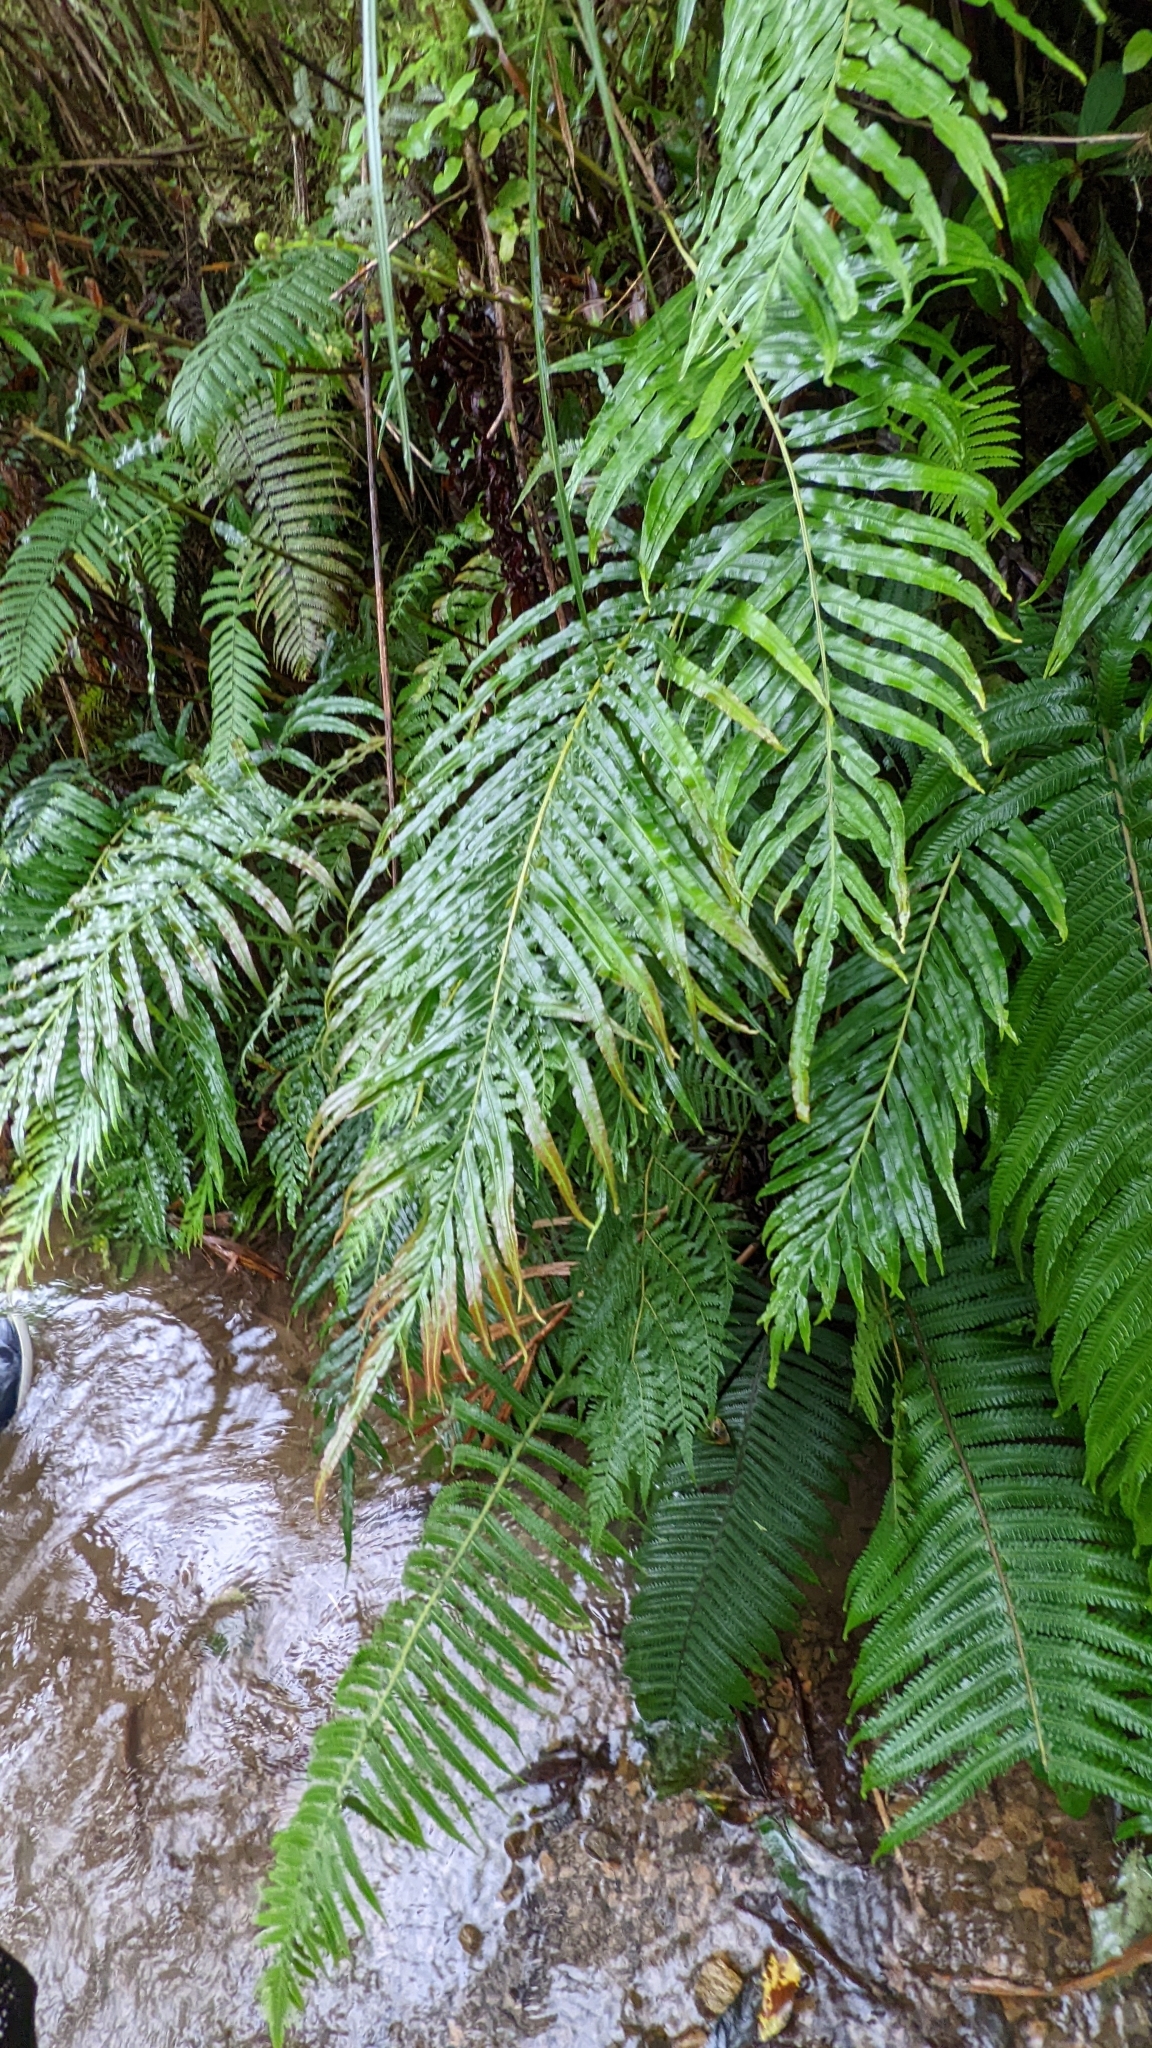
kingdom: Plantae
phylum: Tracheophyta
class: Polypodiopsida
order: Polypodiales
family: Blechnaceae
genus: Blechnopsis
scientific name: Blechnopsis orientalis
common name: Oriental blechnum
